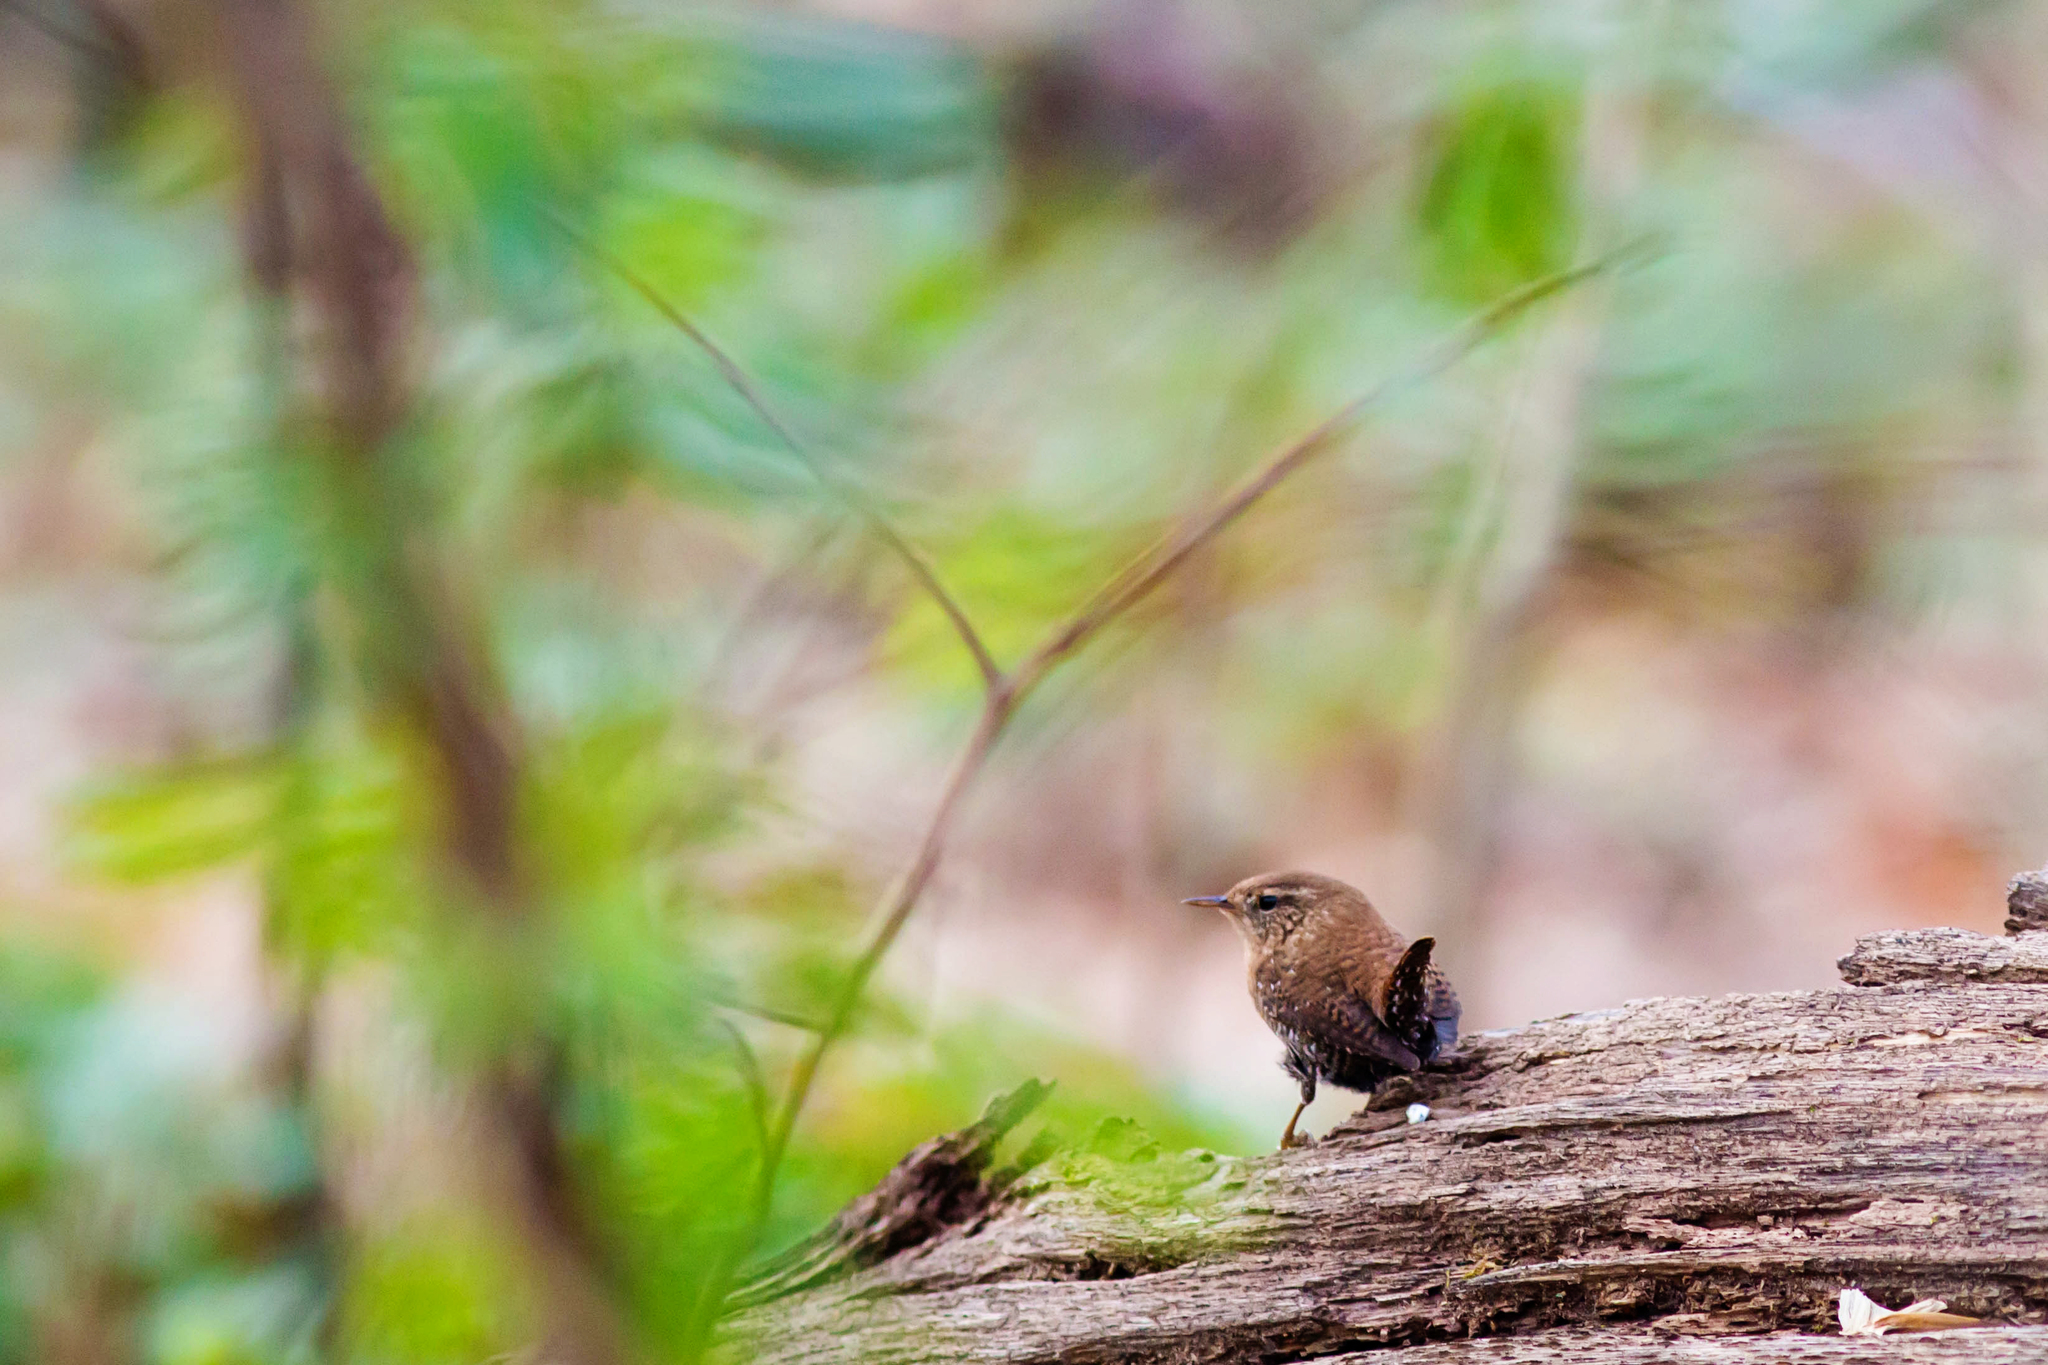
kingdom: Animalia
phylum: Chordata
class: Aves
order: Passeriformes
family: Troglodytidae
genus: Troglodytes
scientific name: Troglodytes hiemalis
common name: Winter wren
